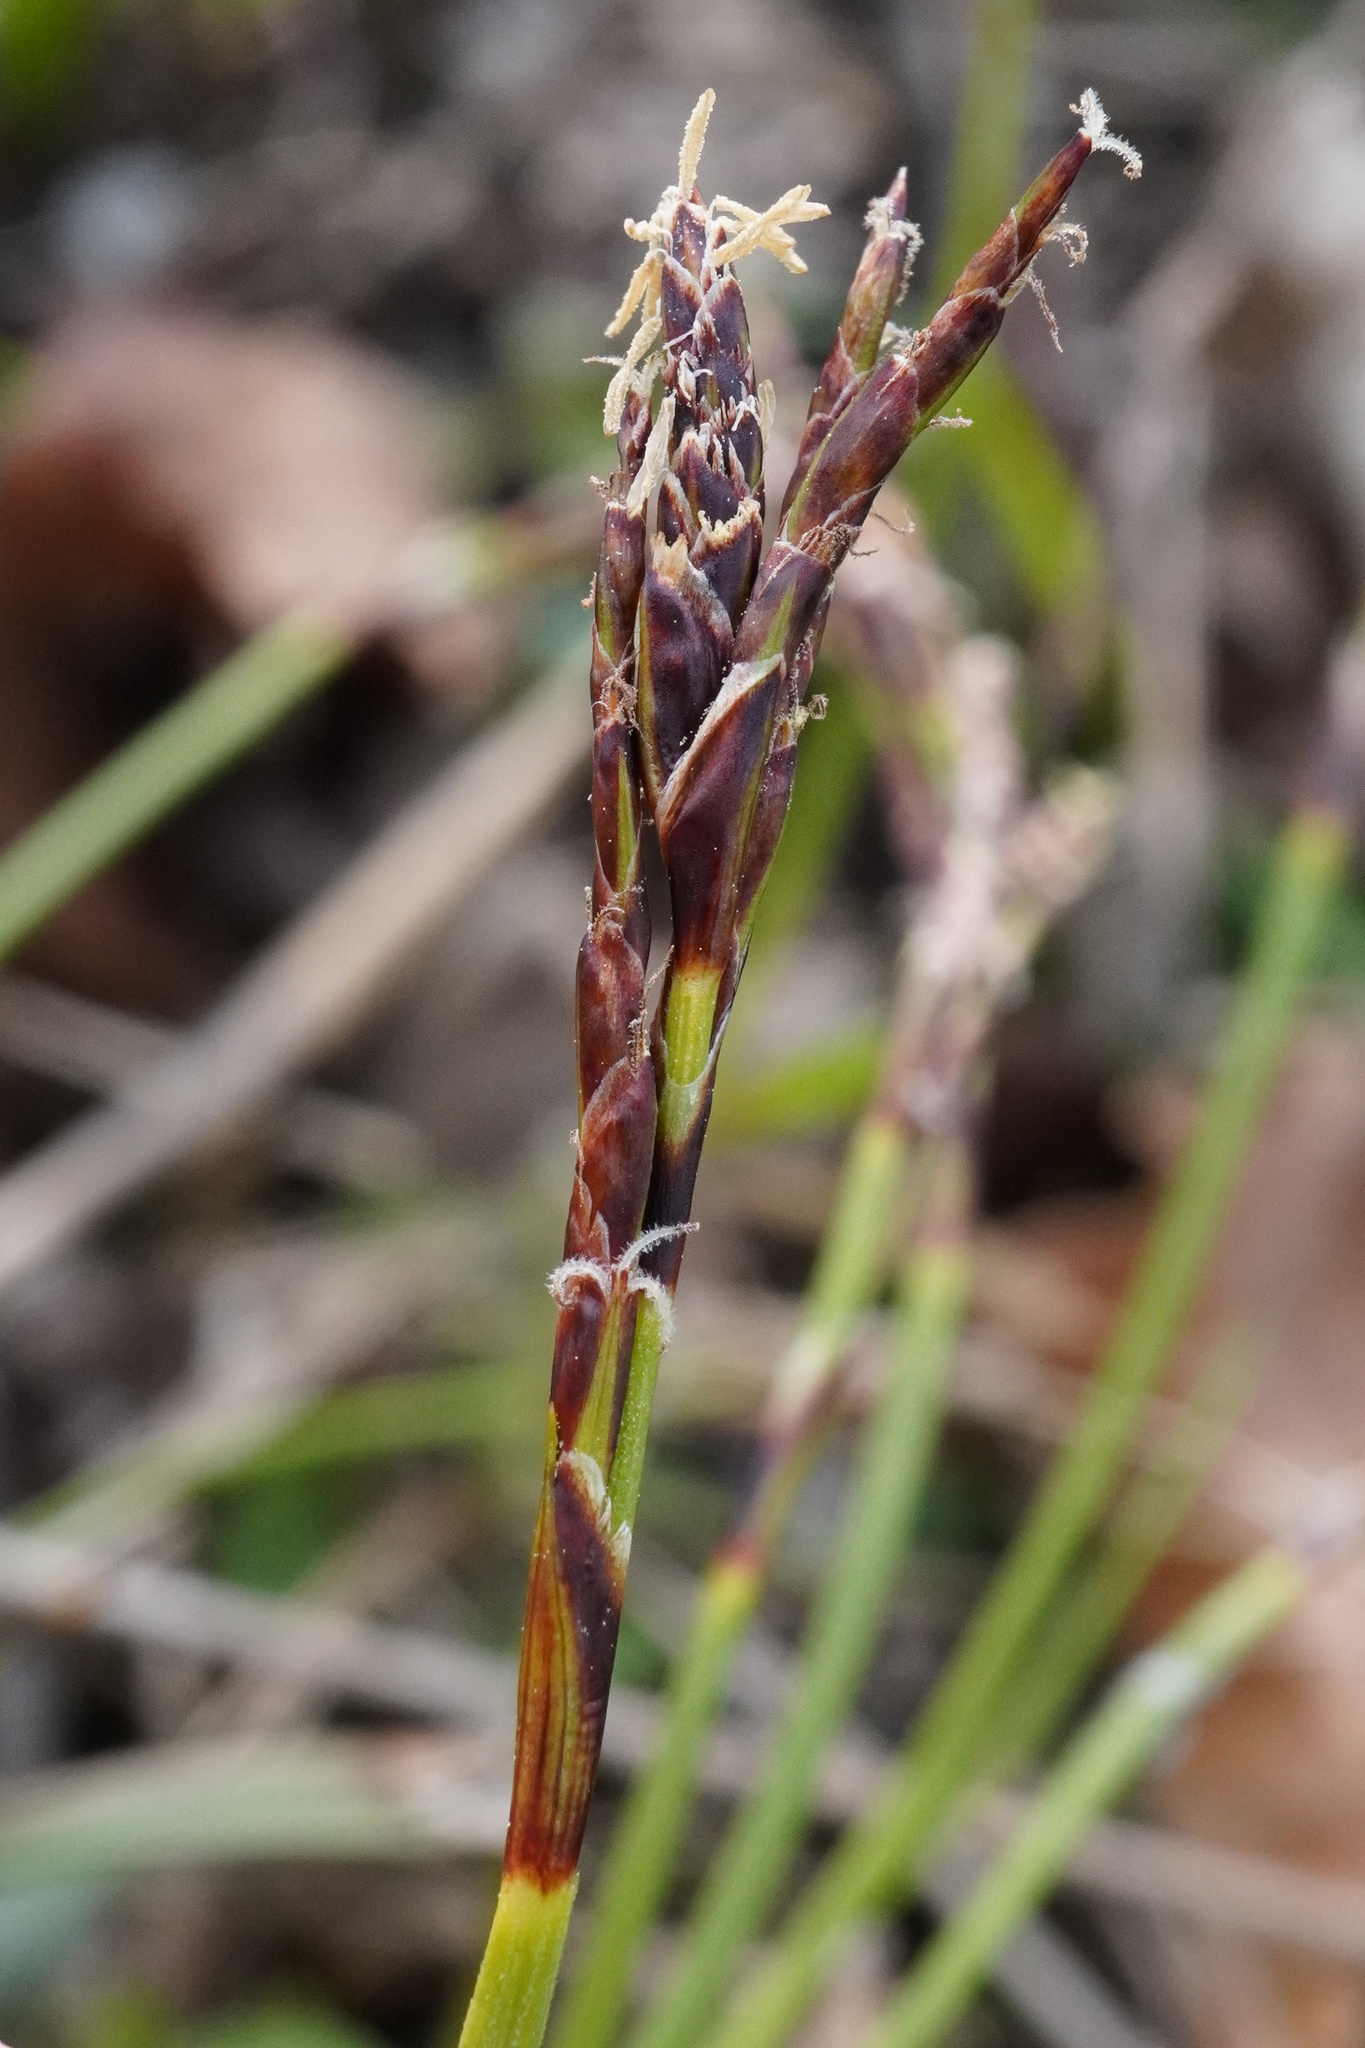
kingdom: Plantae
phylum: Tracheophyta
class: Liliopsida
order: Poales
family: Cyperaceae
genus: Carex
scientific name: Carex digitata
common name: Fingered sedge
